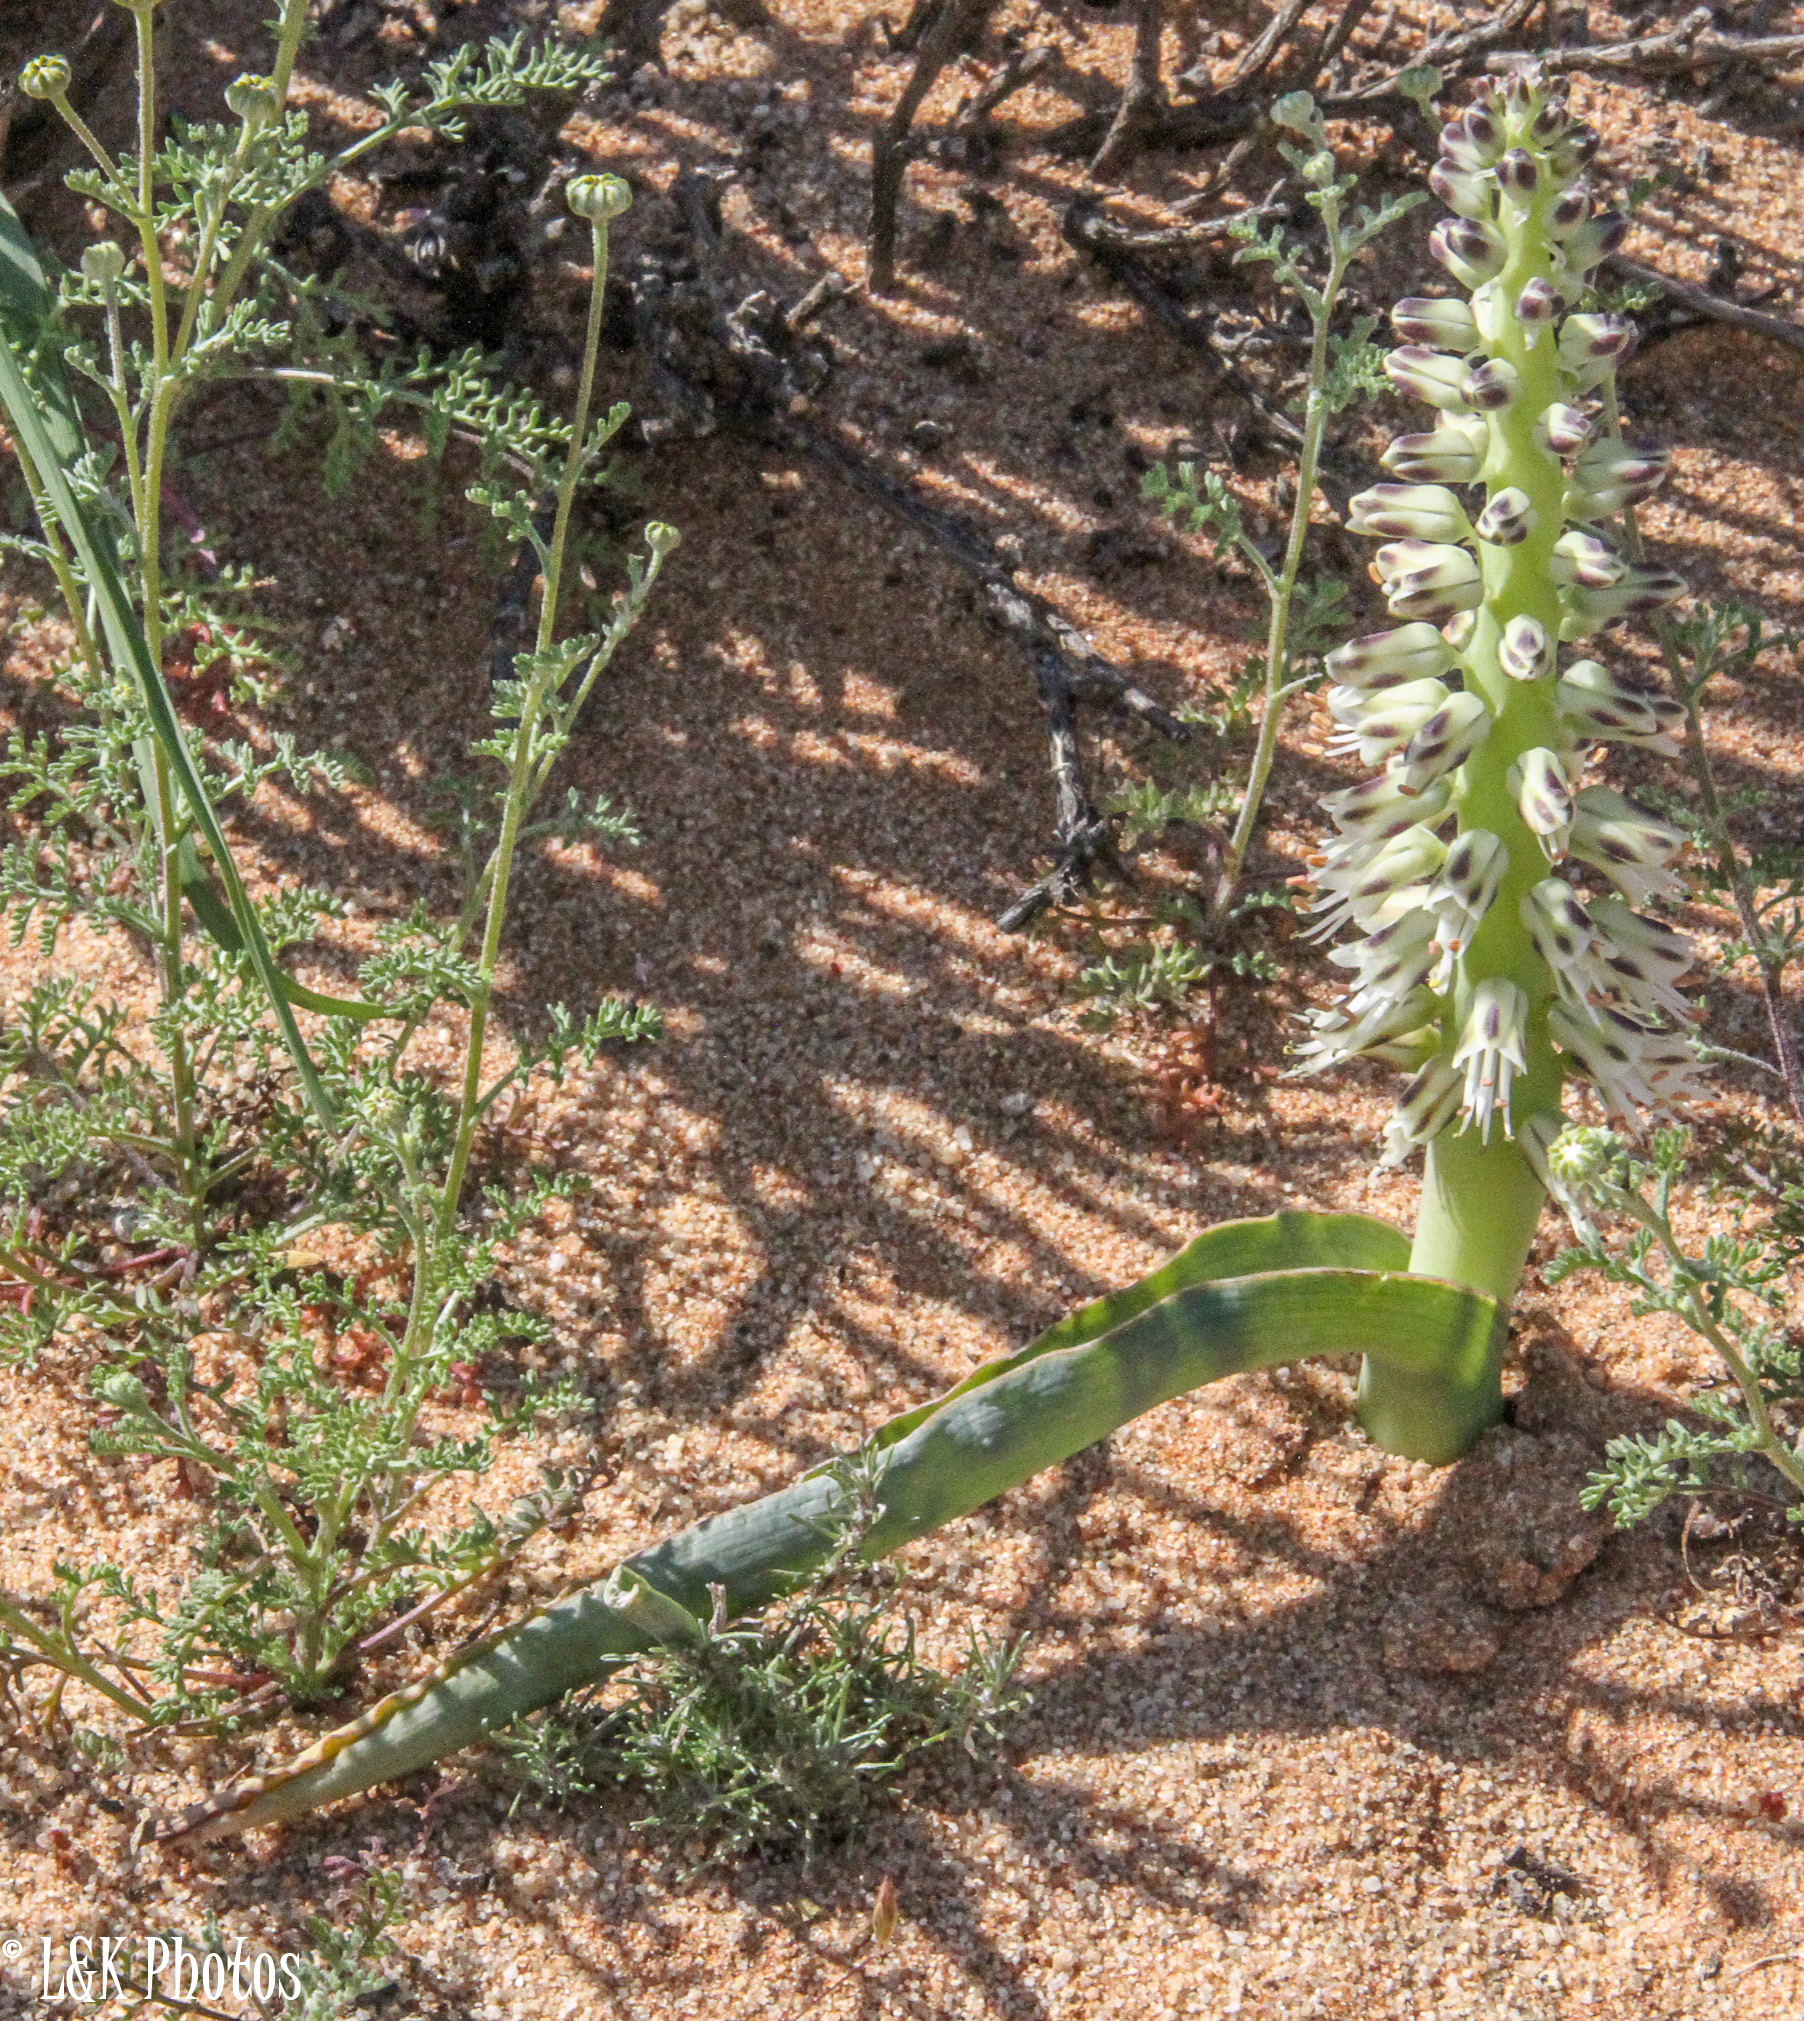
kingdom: Plantae
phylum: Tracheophyta
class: Liliopsida
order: Asparagales
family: Asparagaceae
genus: Lachenalia
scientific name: Lachenalia xerophila
